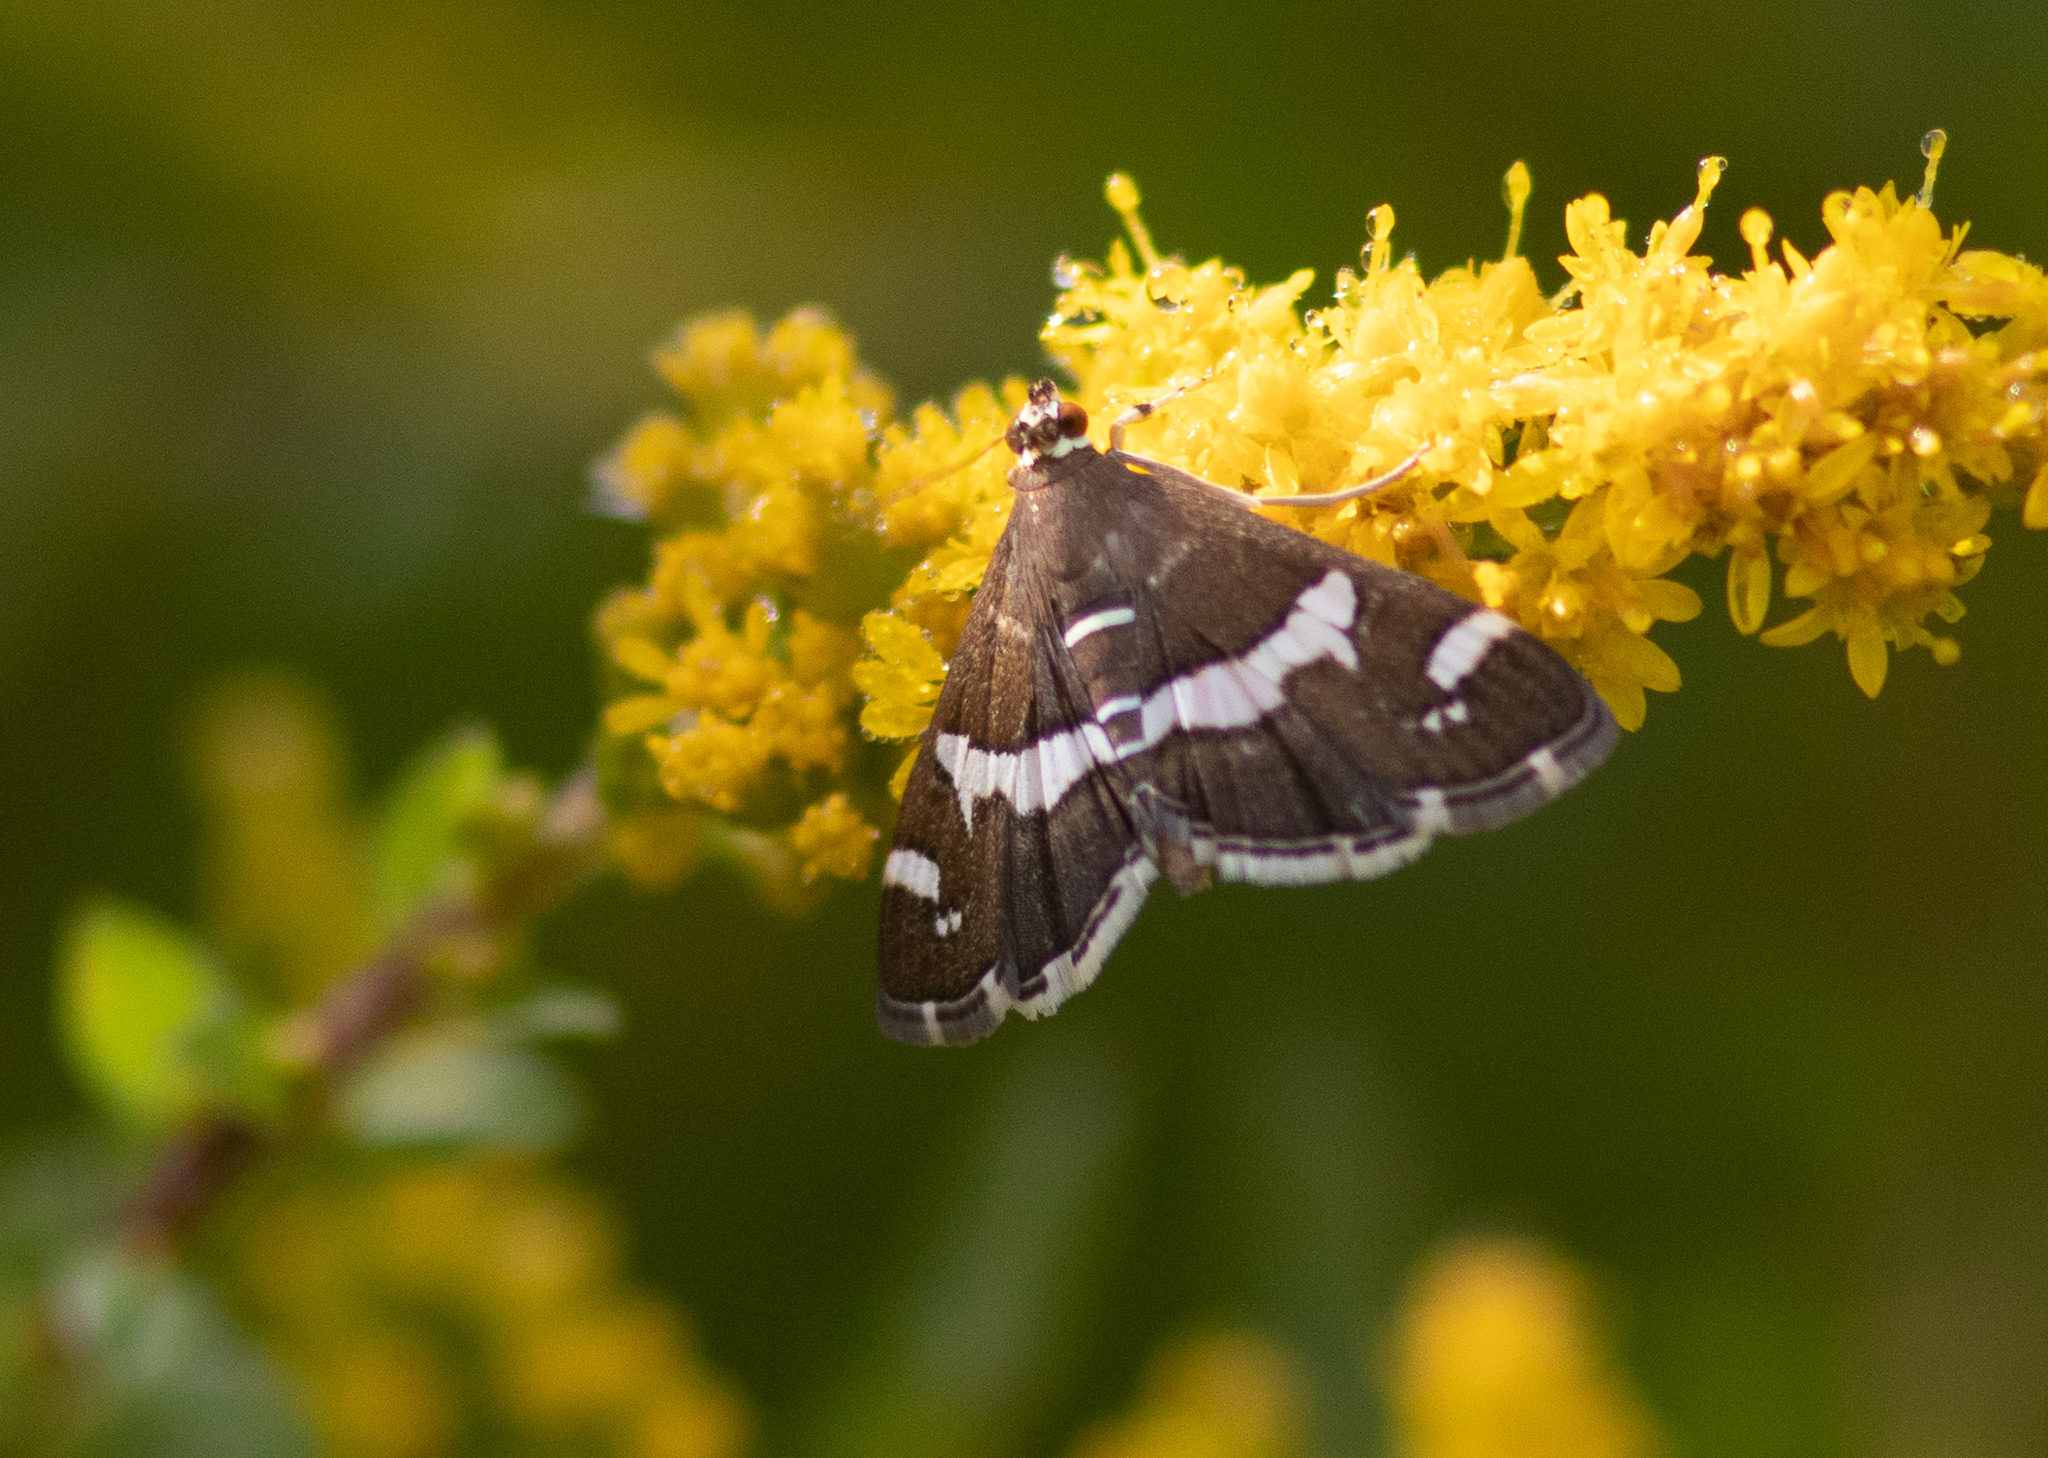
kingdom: Animalia
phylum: Arthropoda
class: Insecta
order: Lepidoptera
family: Crambidae
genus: Spoladea
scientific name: Spoladea recurvalis
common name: Beet webworm moth
